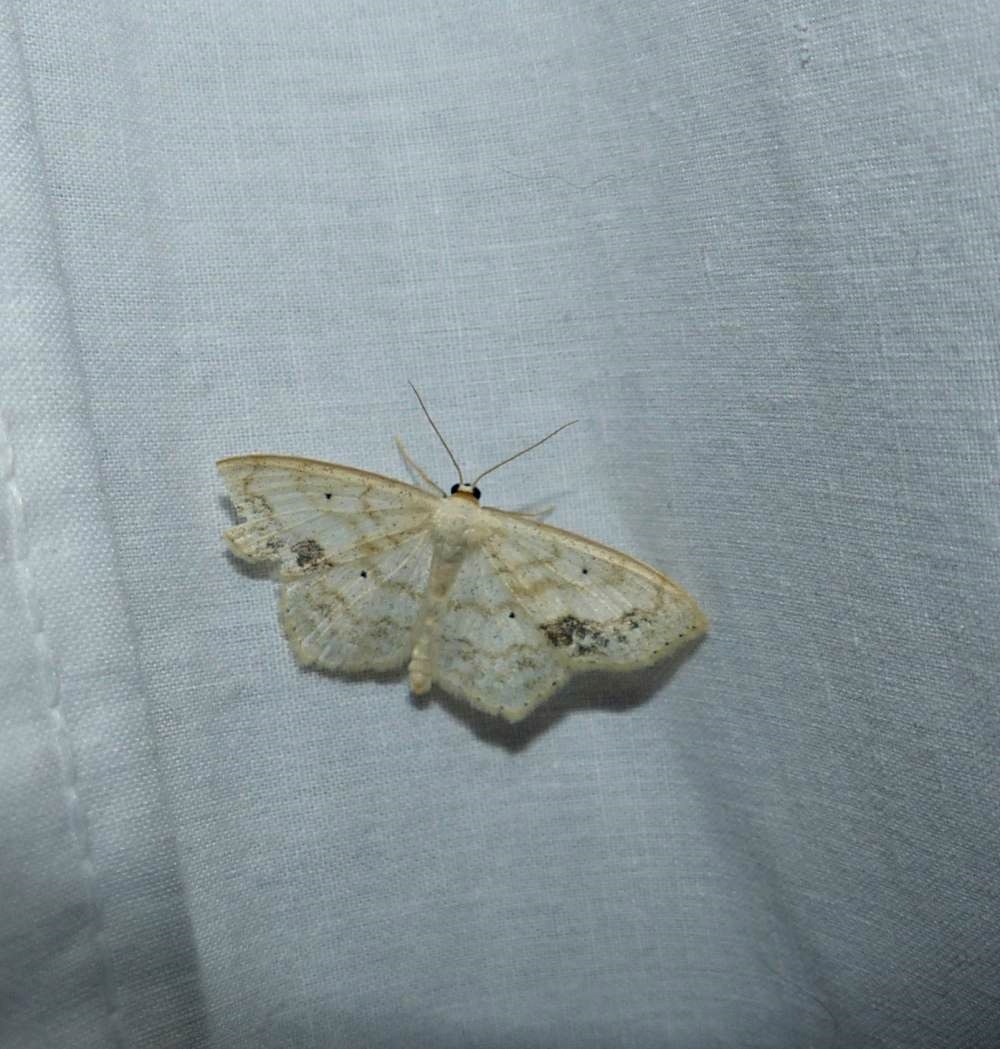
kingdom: Animalia
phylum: Arthropoda
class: Insecta
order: Lepidoptera
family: Geometridae
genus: Scopula
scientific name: Scopula limboundata
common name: Large lace border
